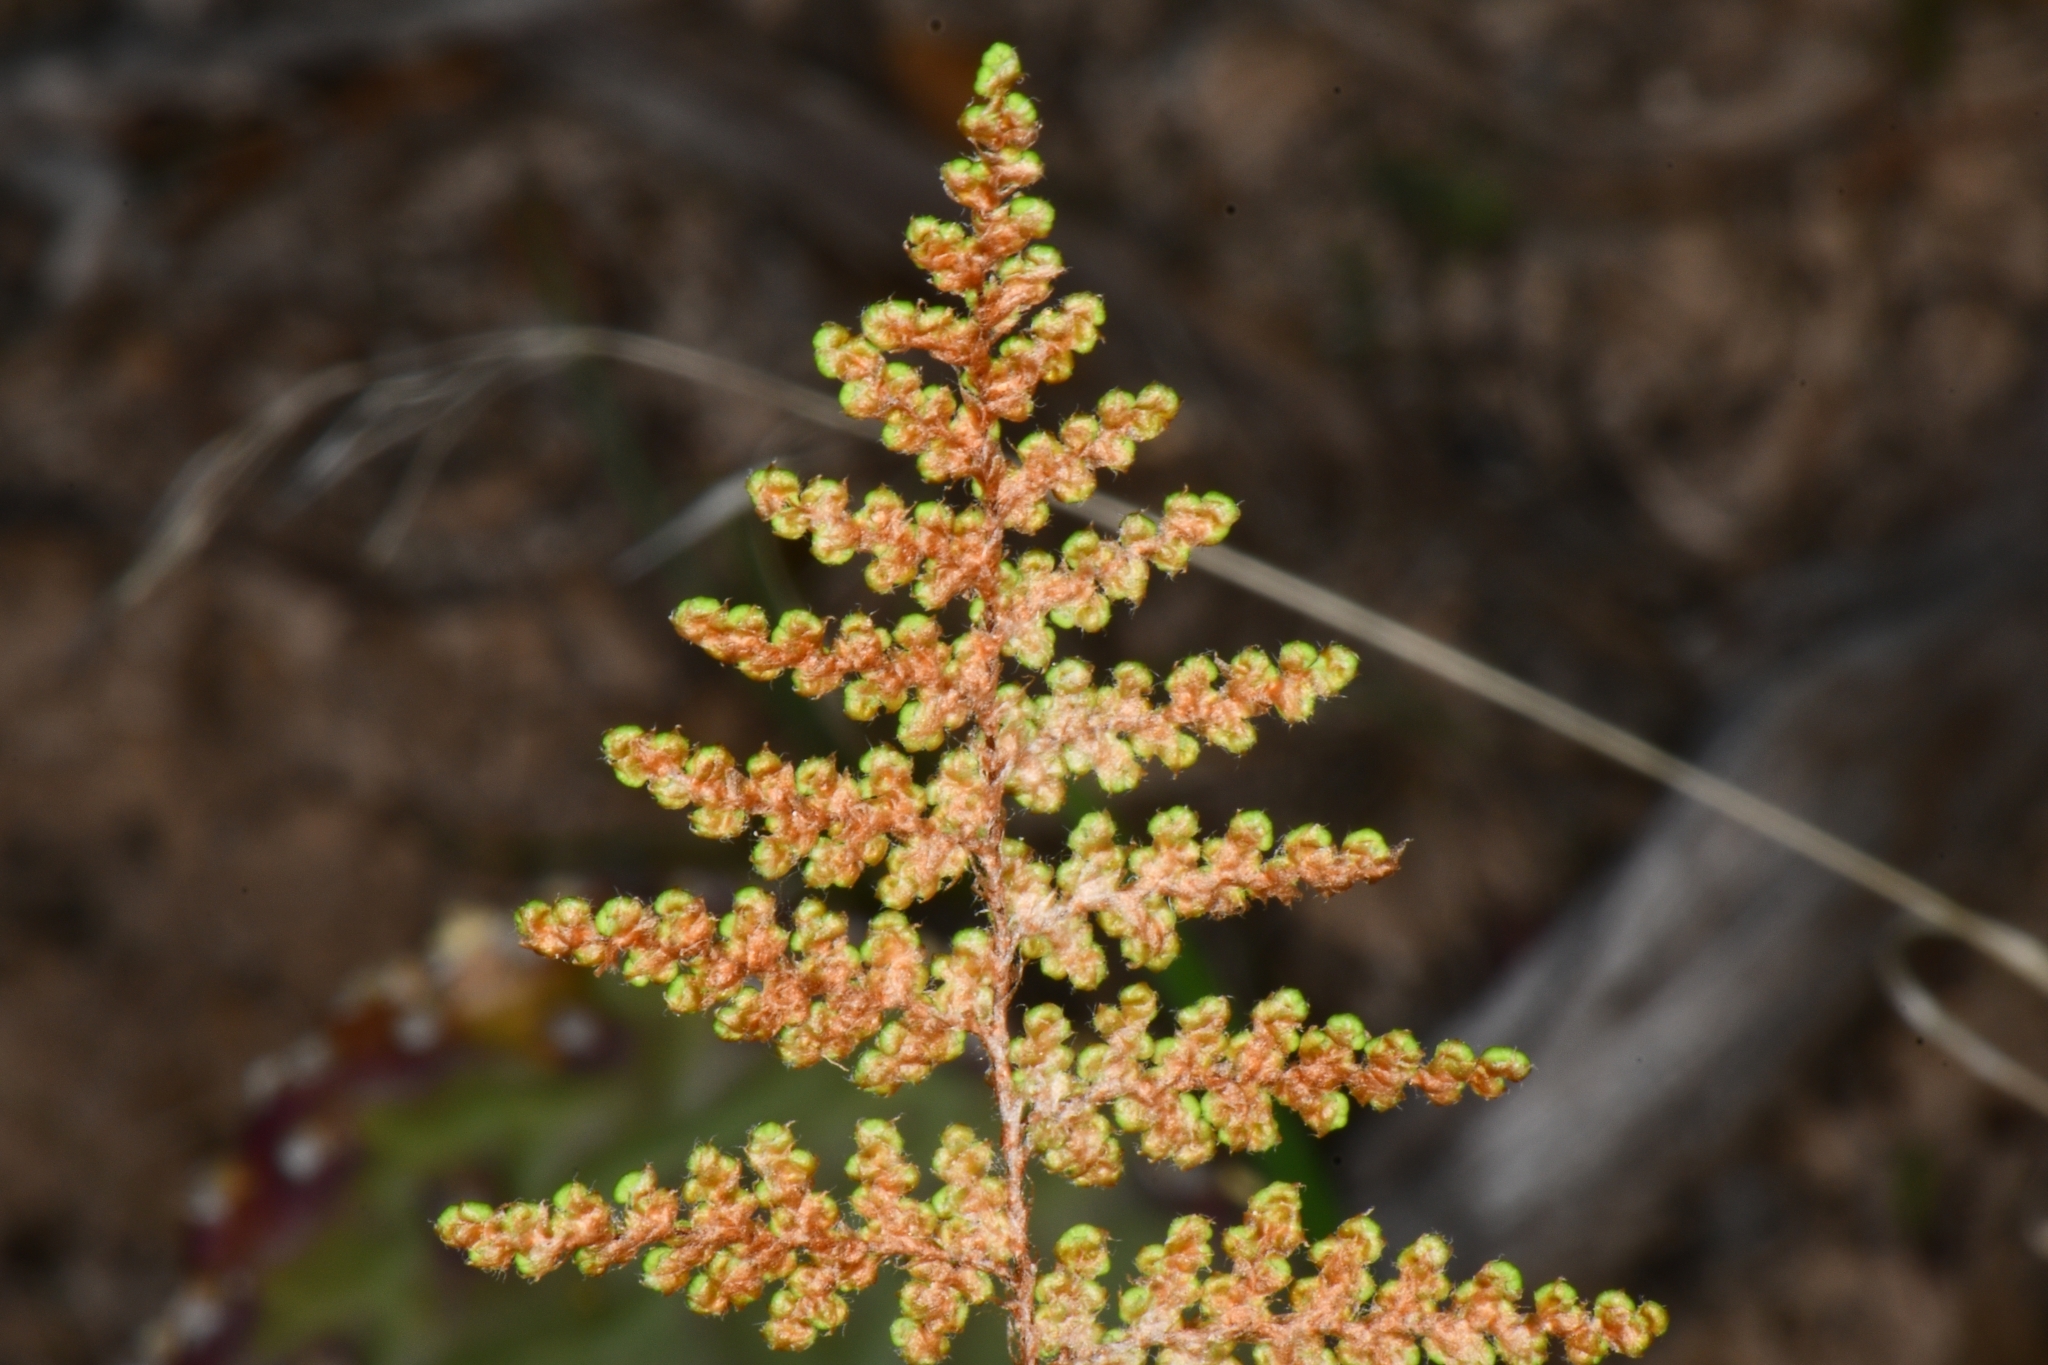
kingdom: Plantae
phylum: Tracheophyta
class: Polypodiopsida
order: Polypodiales
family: Pteridaceae
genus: Myriopteris
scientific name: Myriopteris covillei
